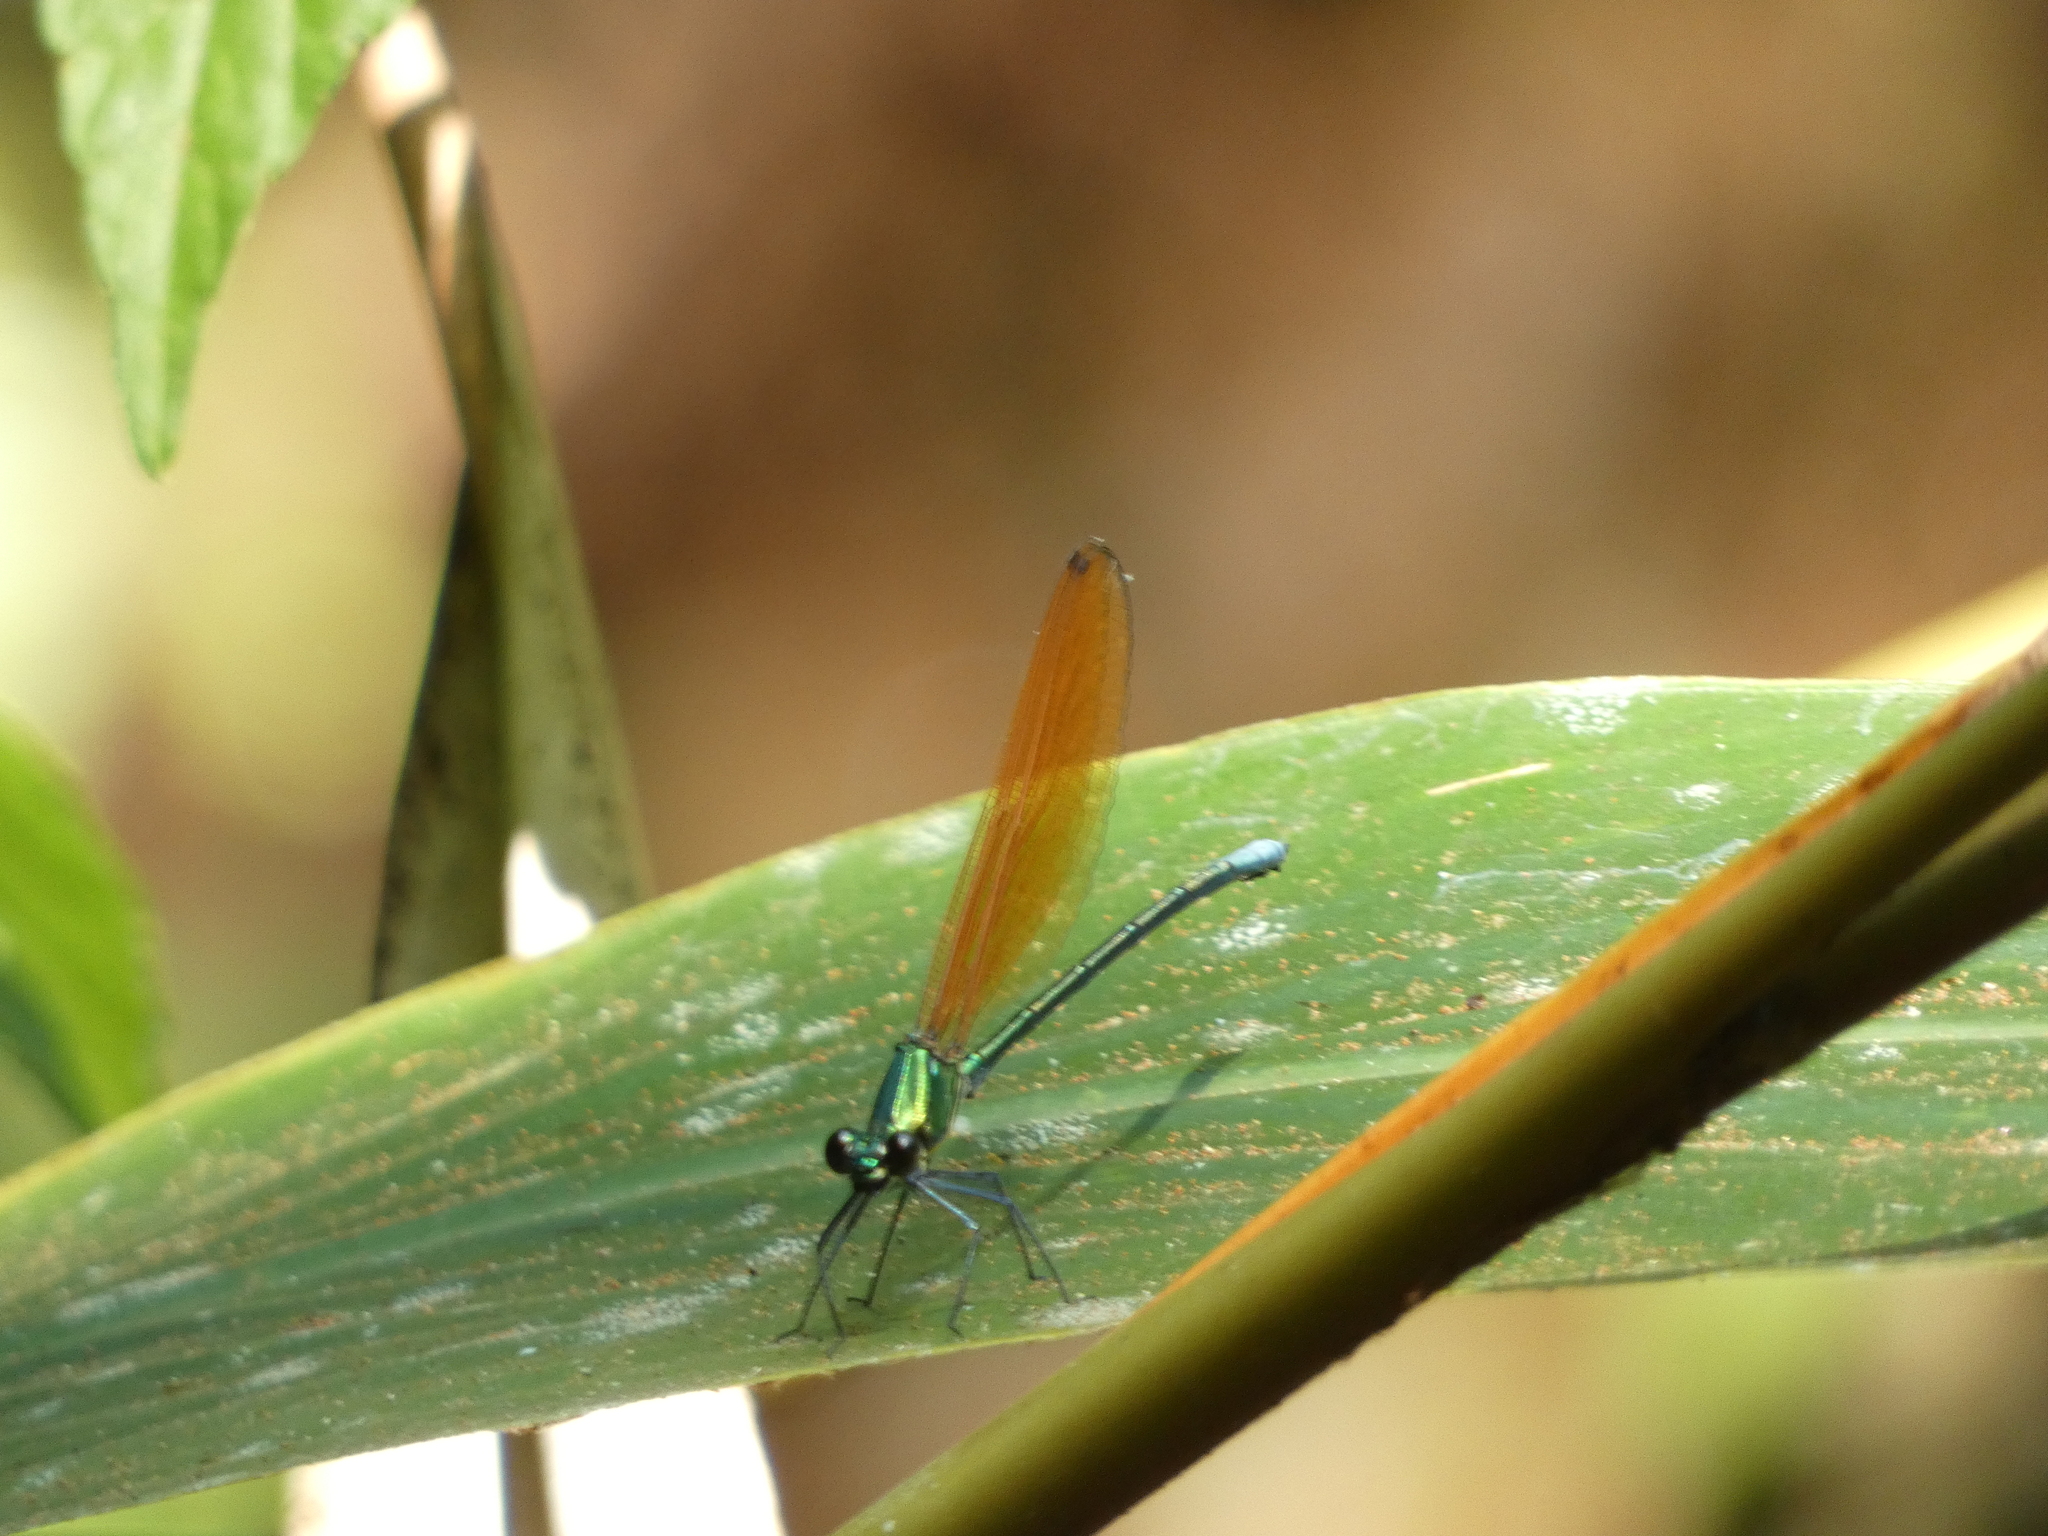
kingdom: Animalia
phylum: Arthropoda
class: Insecta
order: Odonata
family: Calopterygidae
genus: Mnais
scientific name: Mnais andersoni
